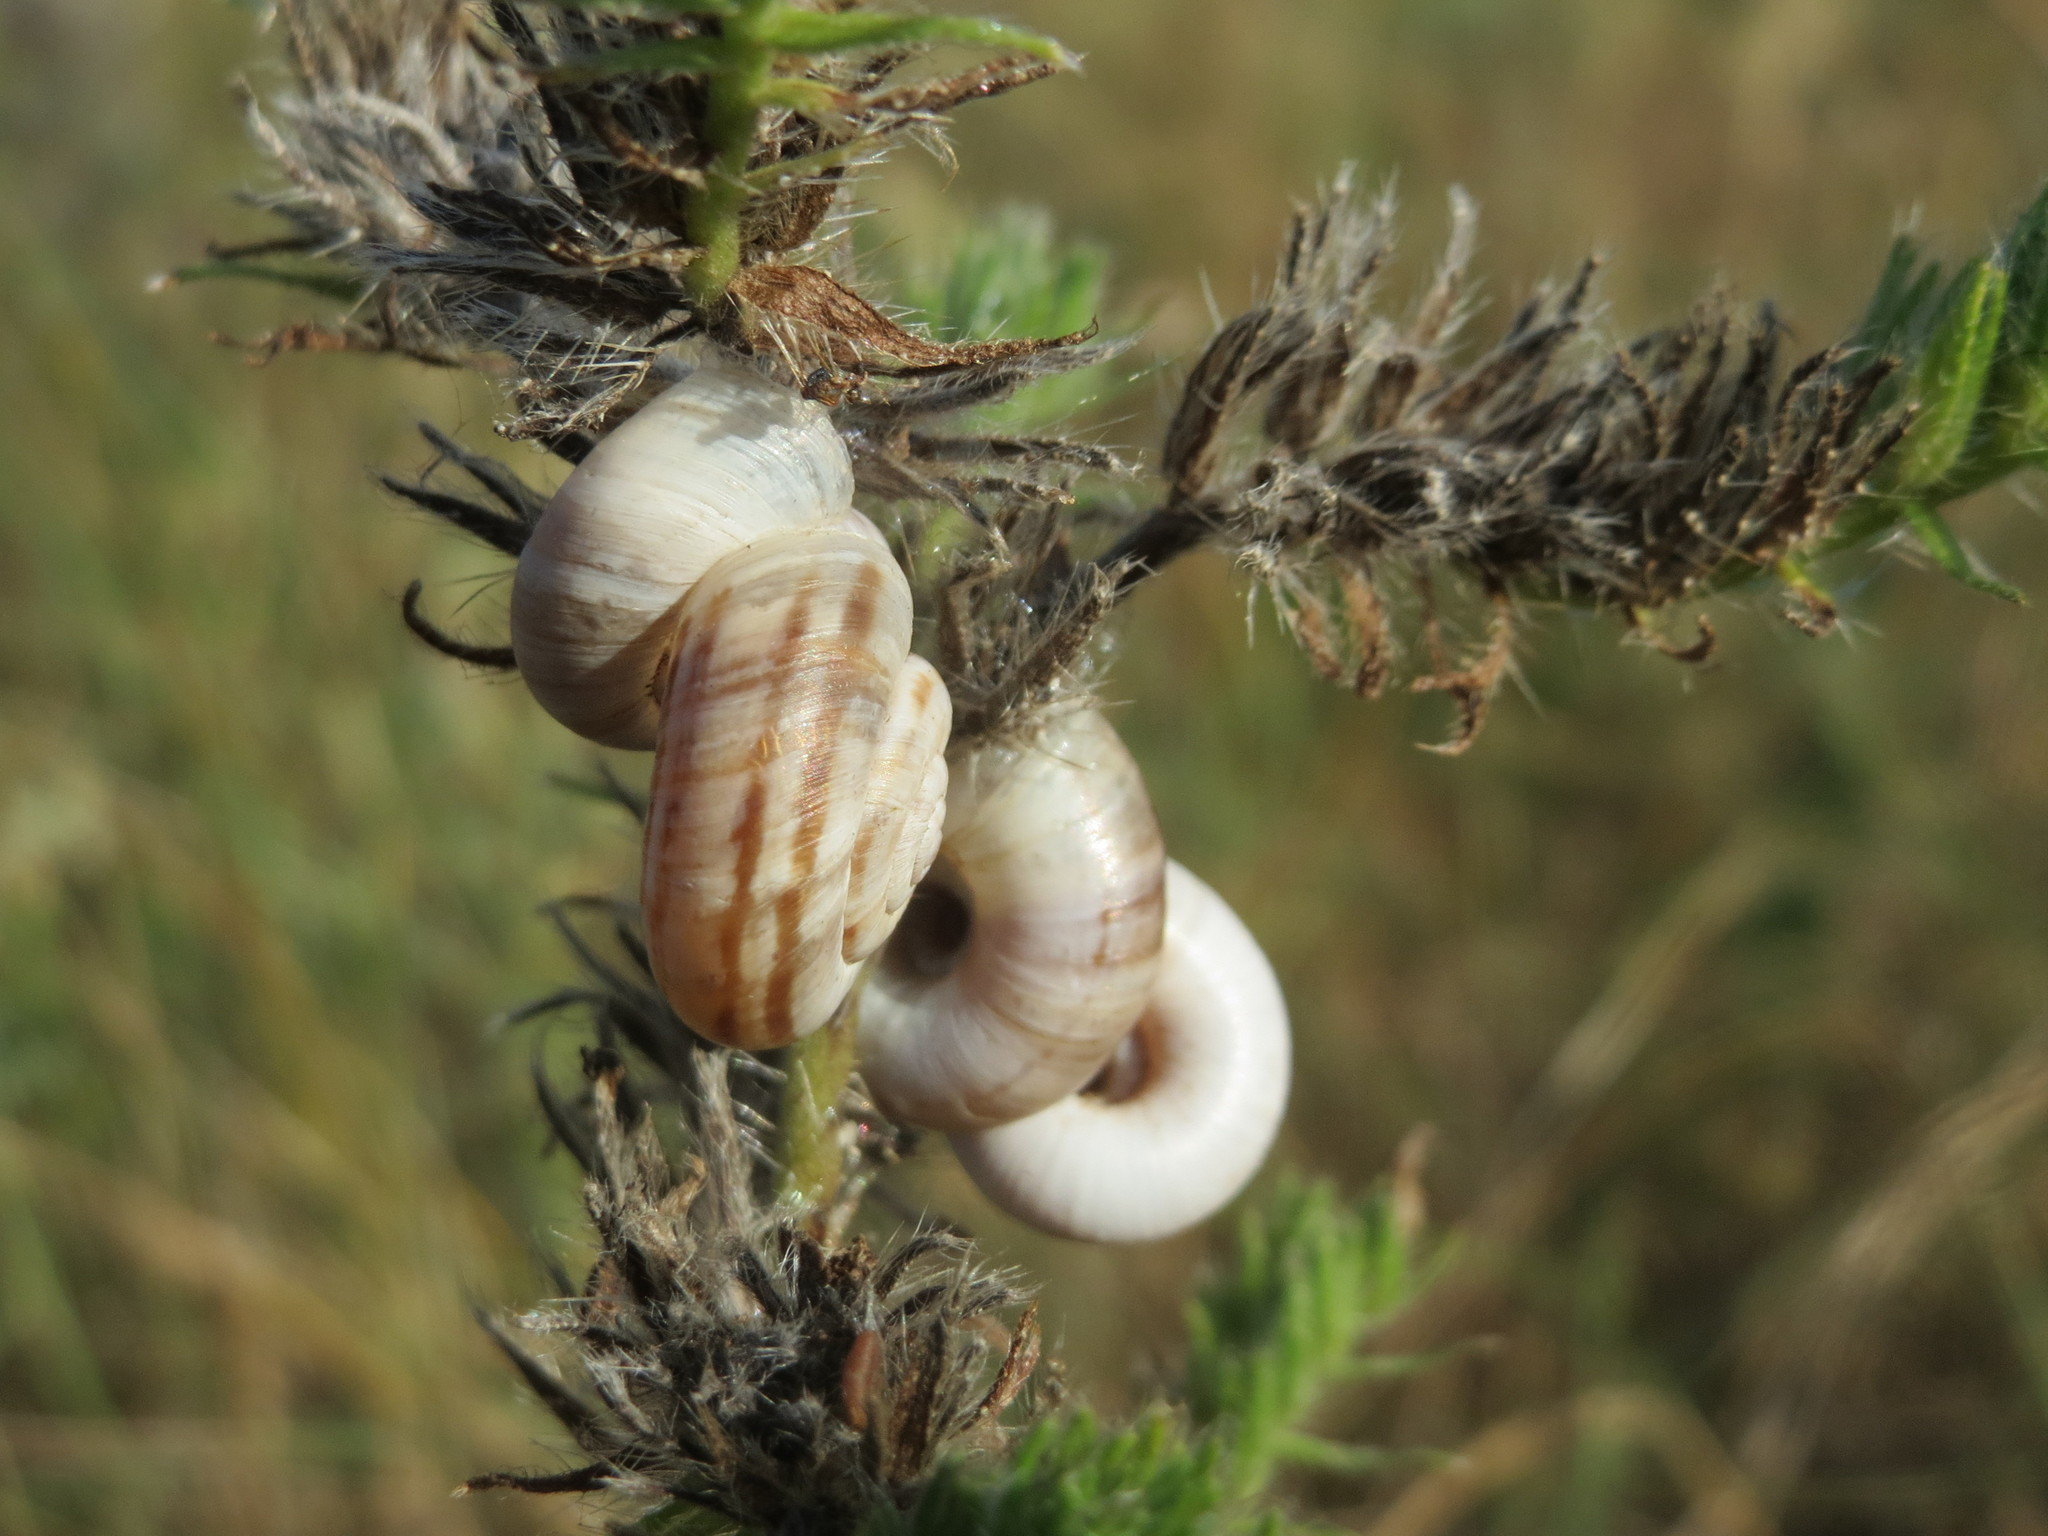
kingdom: Animalia
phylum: Mollusca
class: Gastropoda
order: Stylommatophora
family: Geomitridae
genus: Xerolenta
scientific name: Xerolenta obvia
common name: White heath snail
